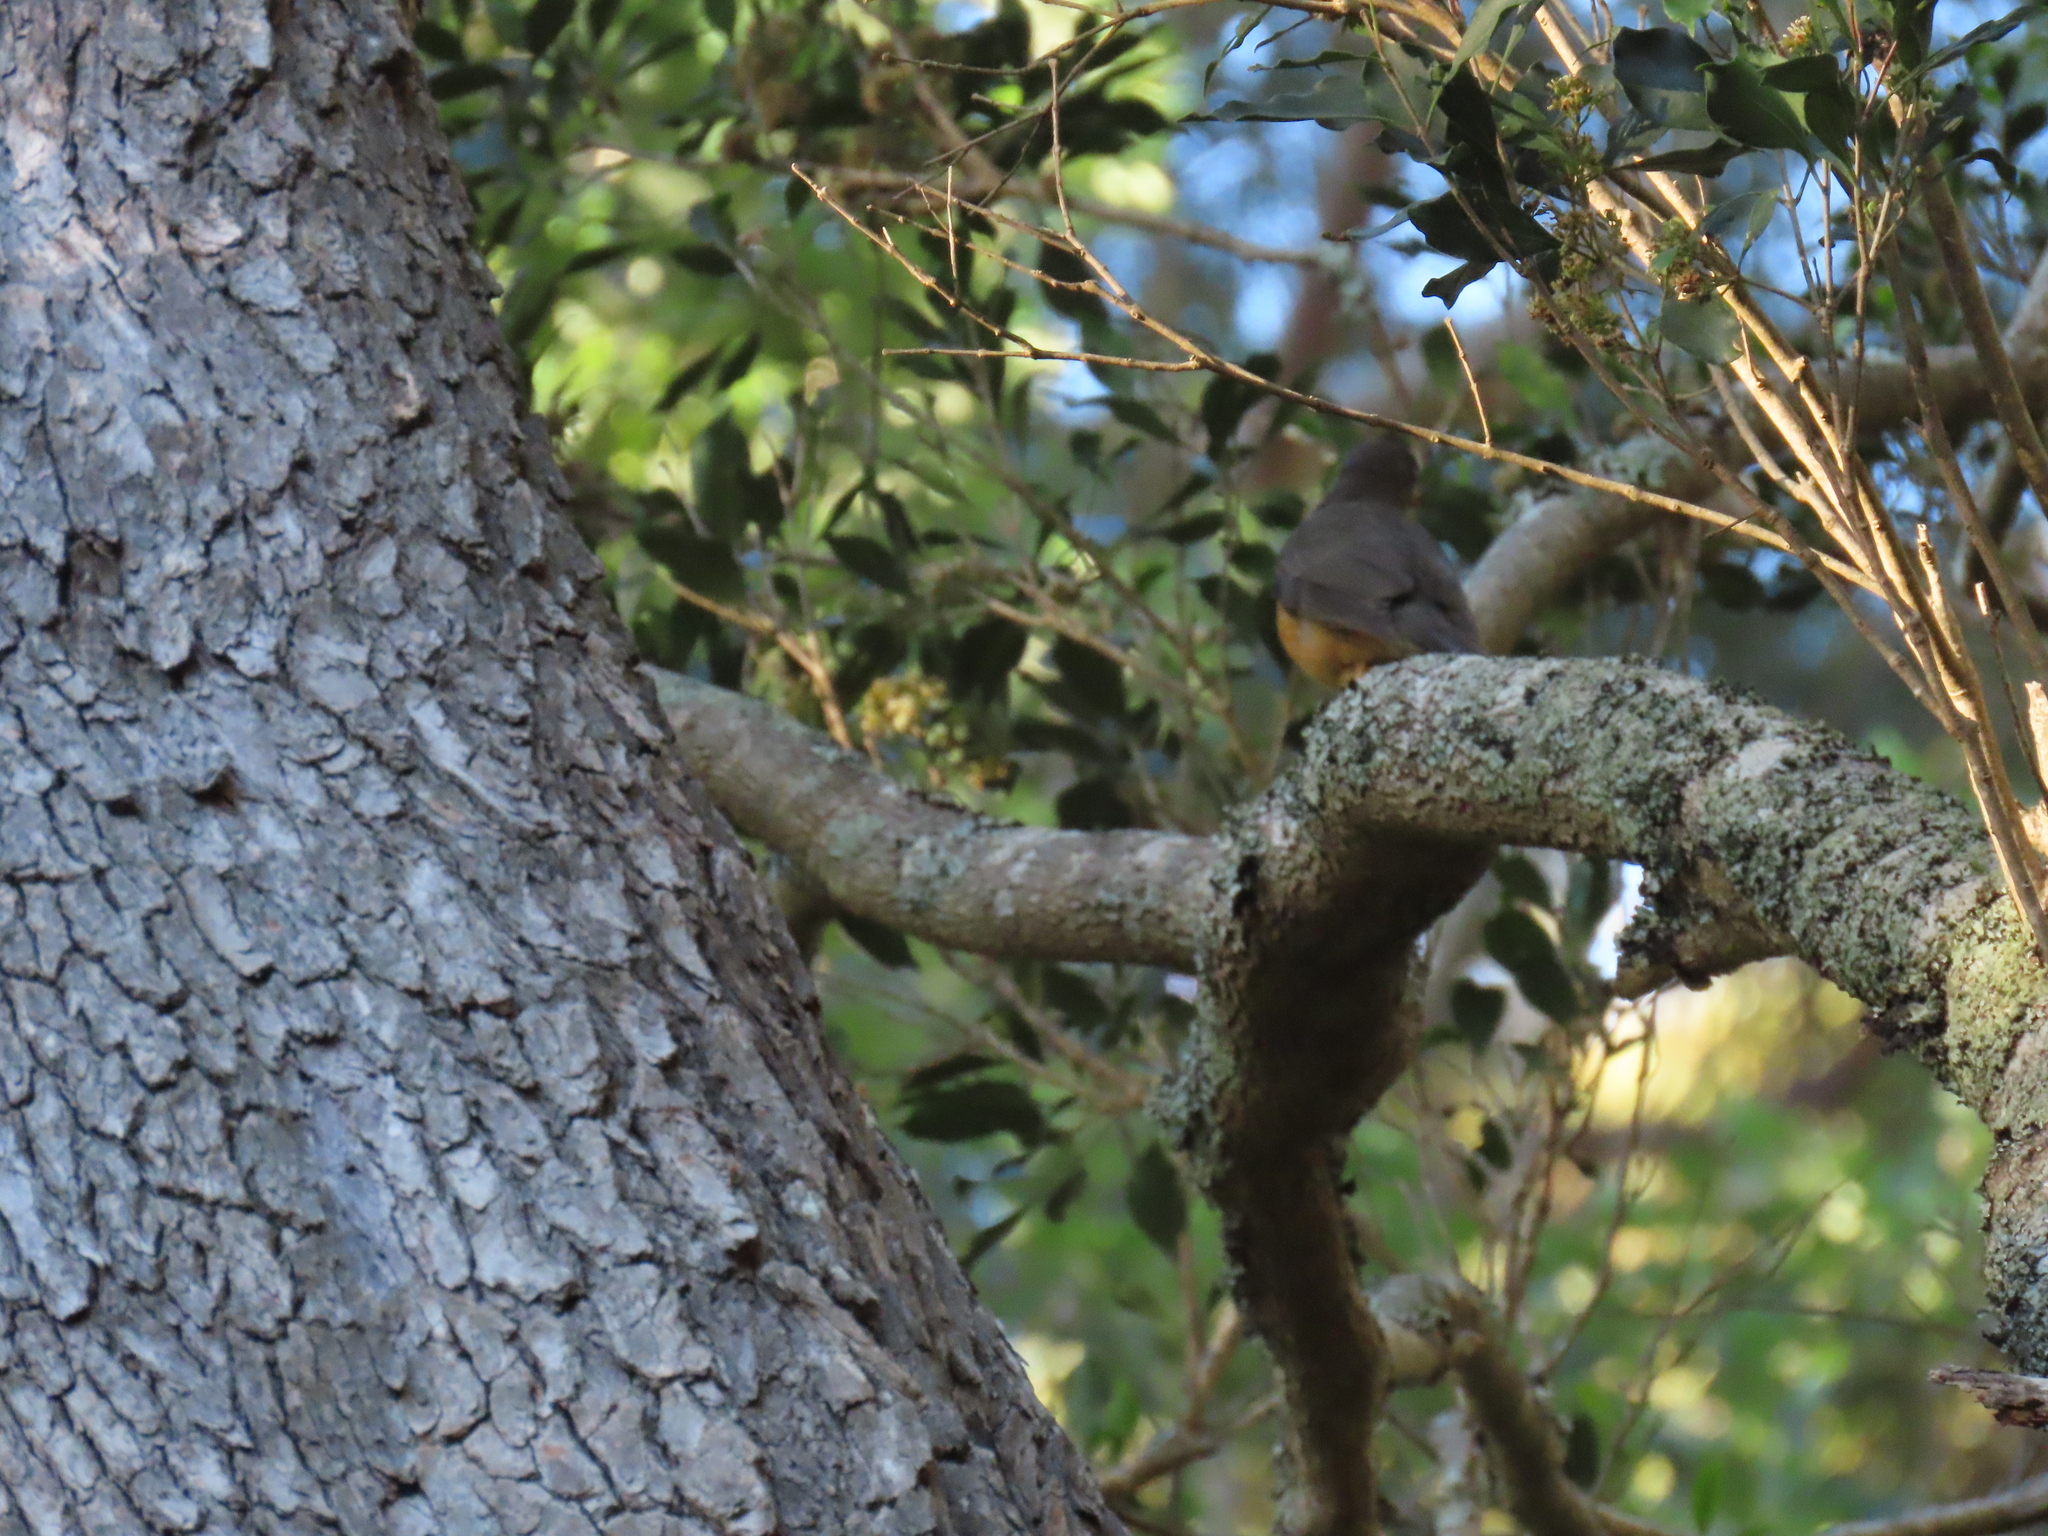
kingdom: Animalia
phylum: Chordata
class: Aves
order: Passeriformes
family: Turdidae
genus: Turdus
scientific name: Turdus olivaceus
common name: Olive thrush
